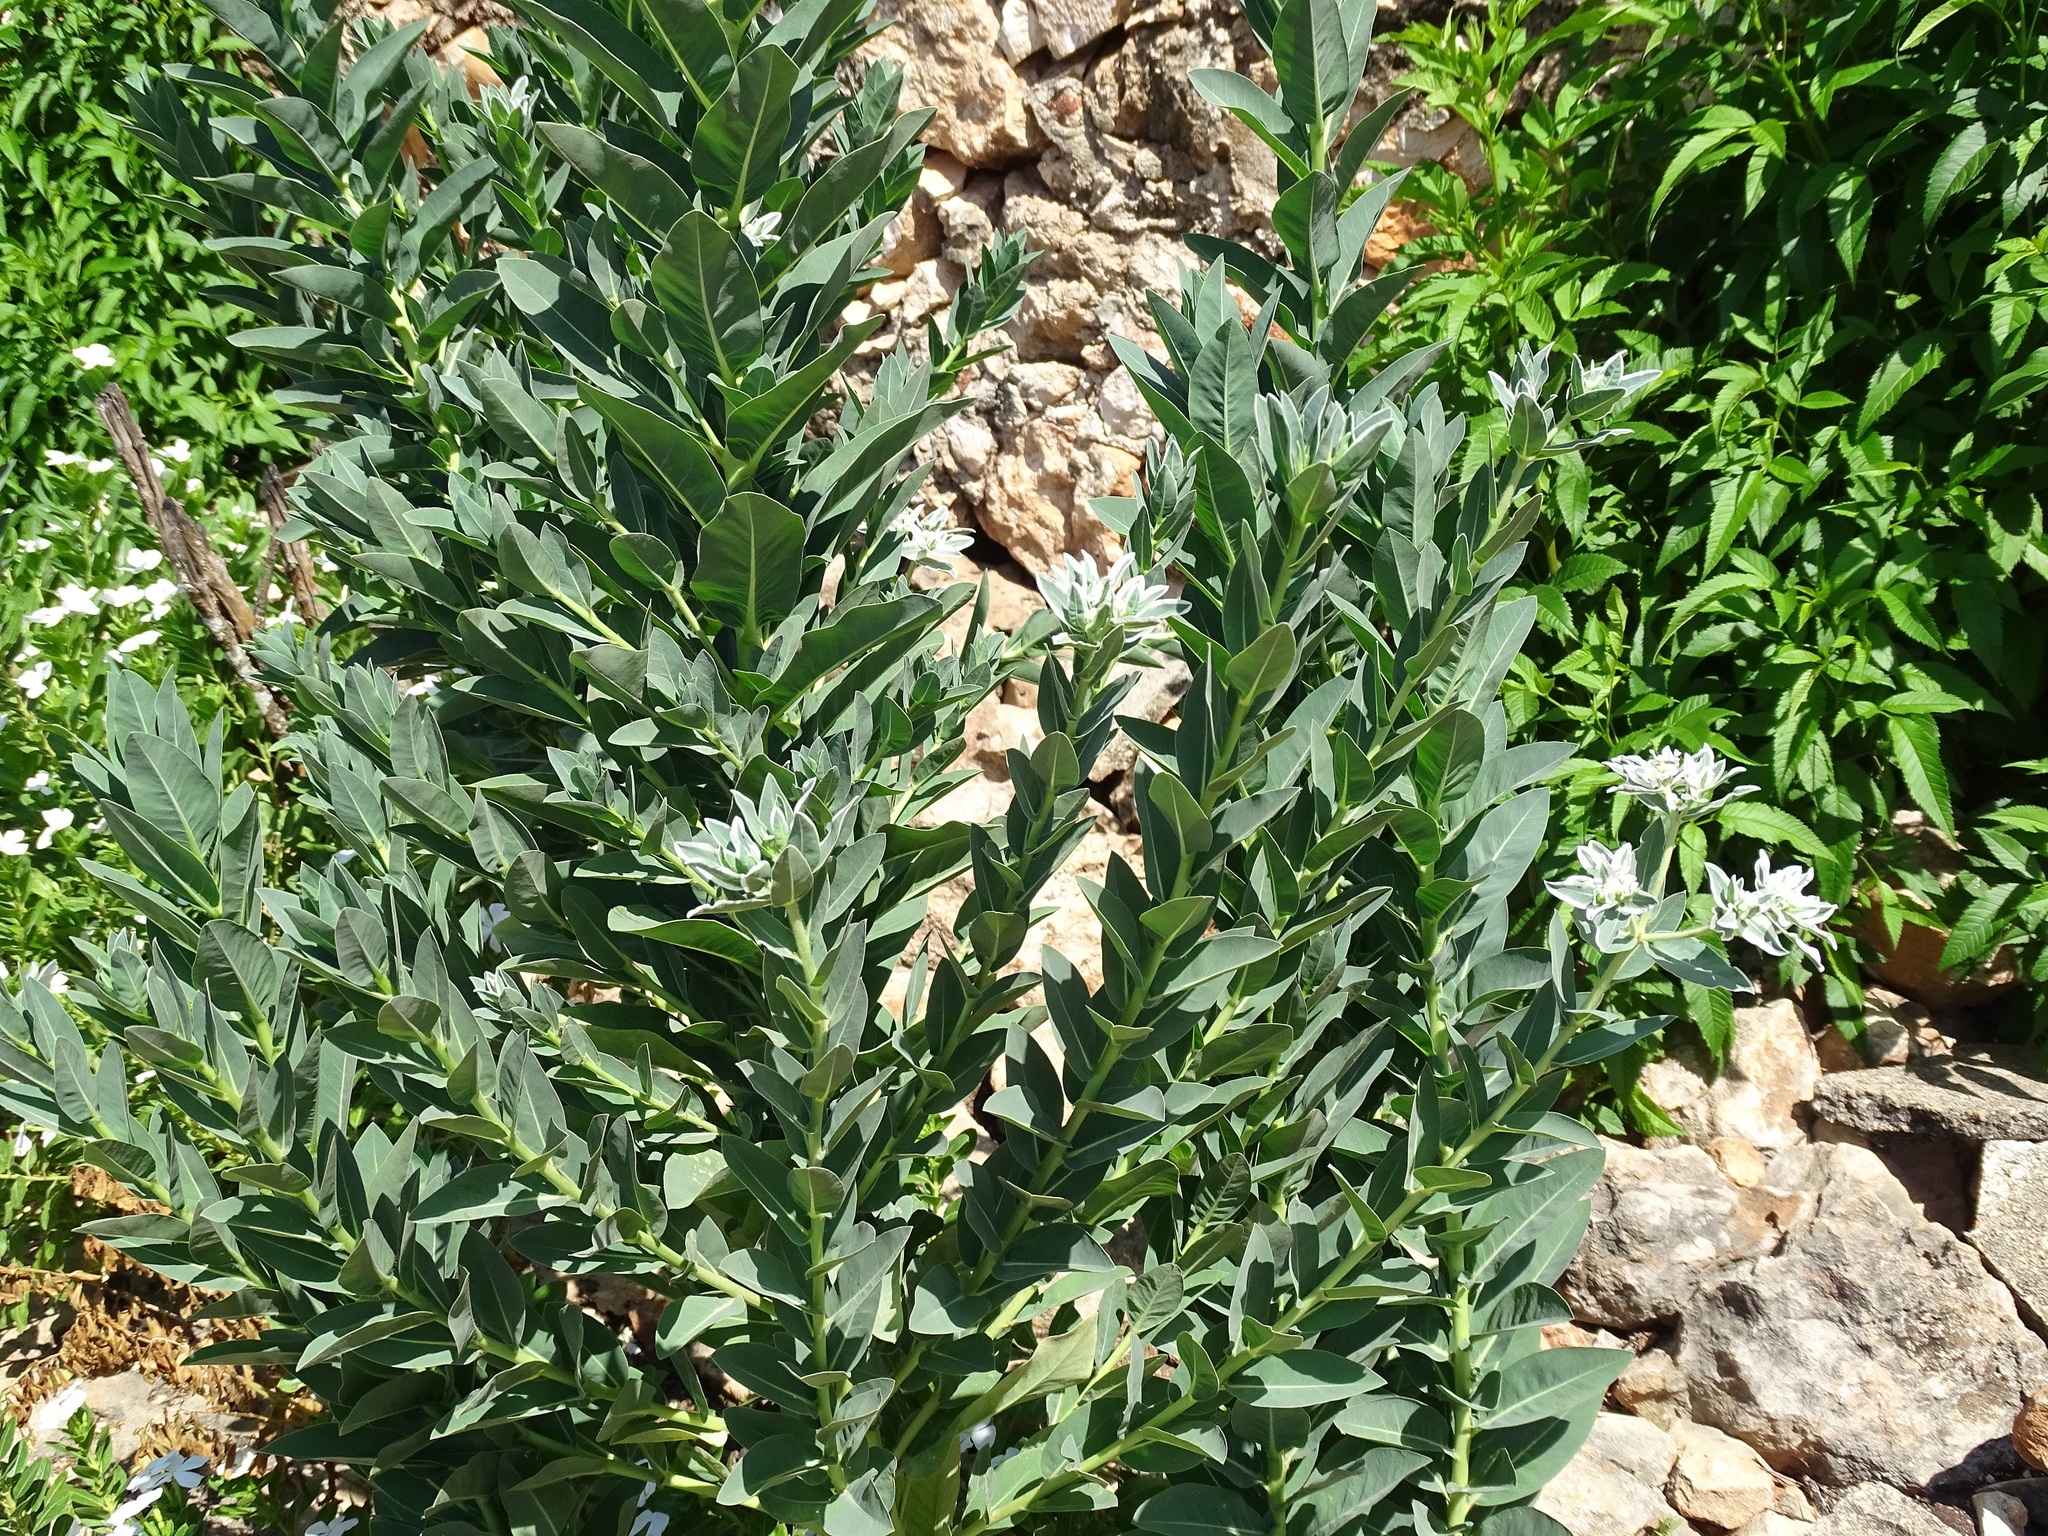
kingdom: Plantae
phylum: Tracheophyta
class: Magnoliopsida
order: Malpighiales
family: Euphorbiaceae
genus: Euphorbia
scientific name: Euphorbia marginata
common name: Ghostweed
